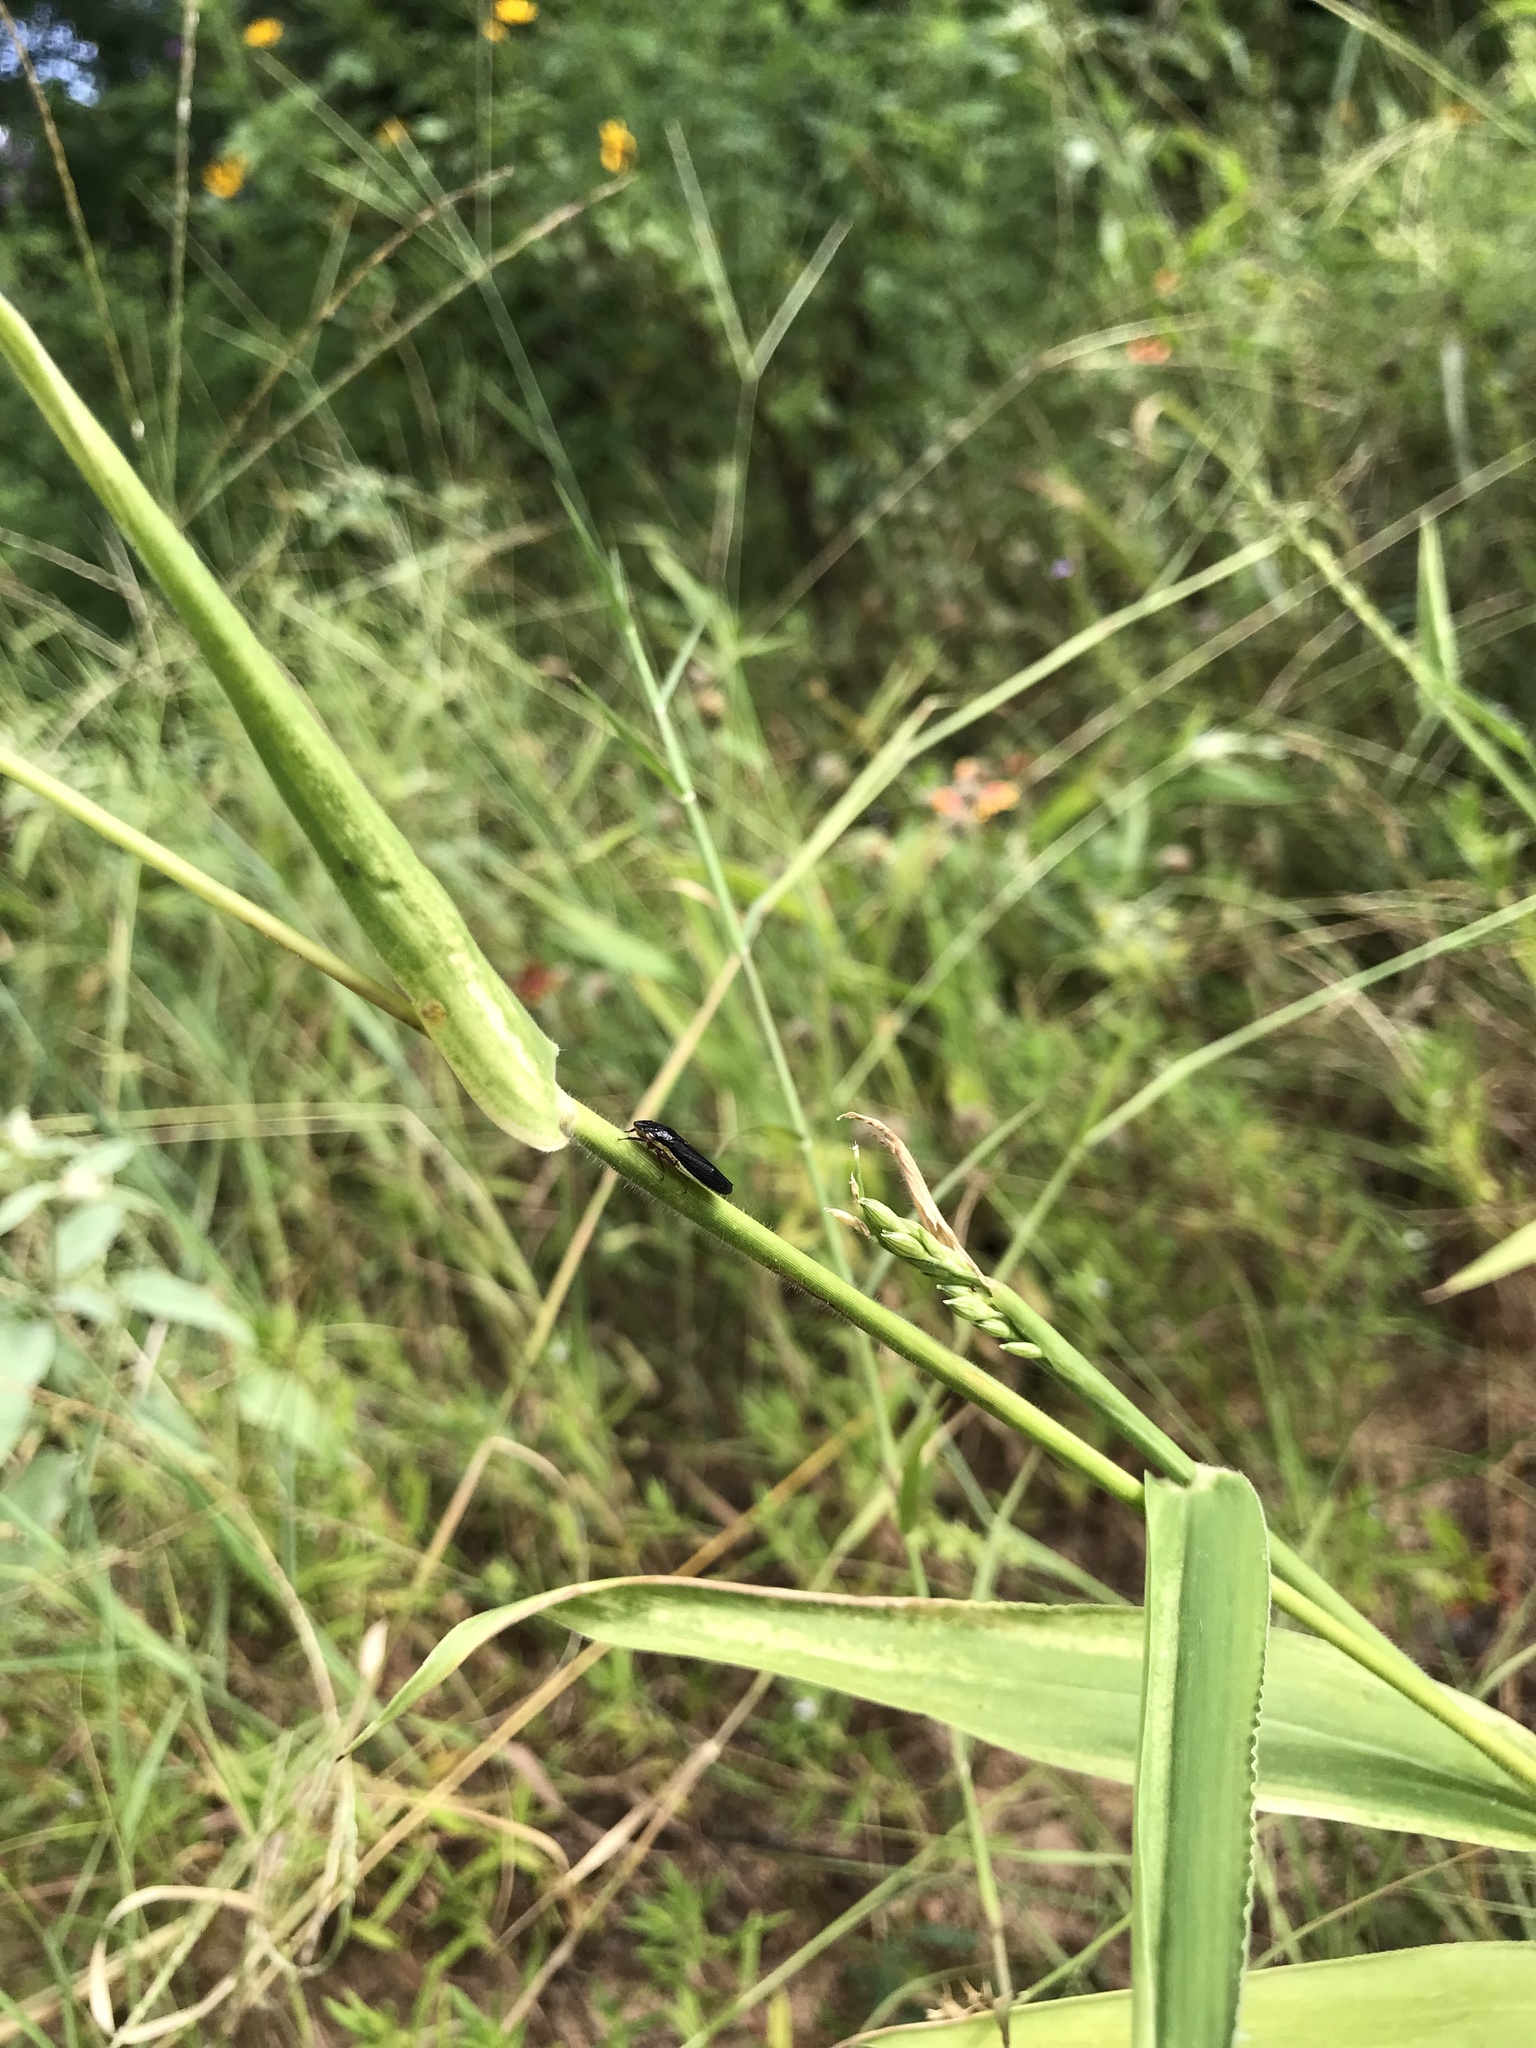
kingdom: Animalia
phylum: Arthropoda
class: Insecta
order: Hemiptera
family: Cicadellidae
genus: Homalodisca
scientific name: Homalodisca insolita
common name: Johnson grass sharpshooter
